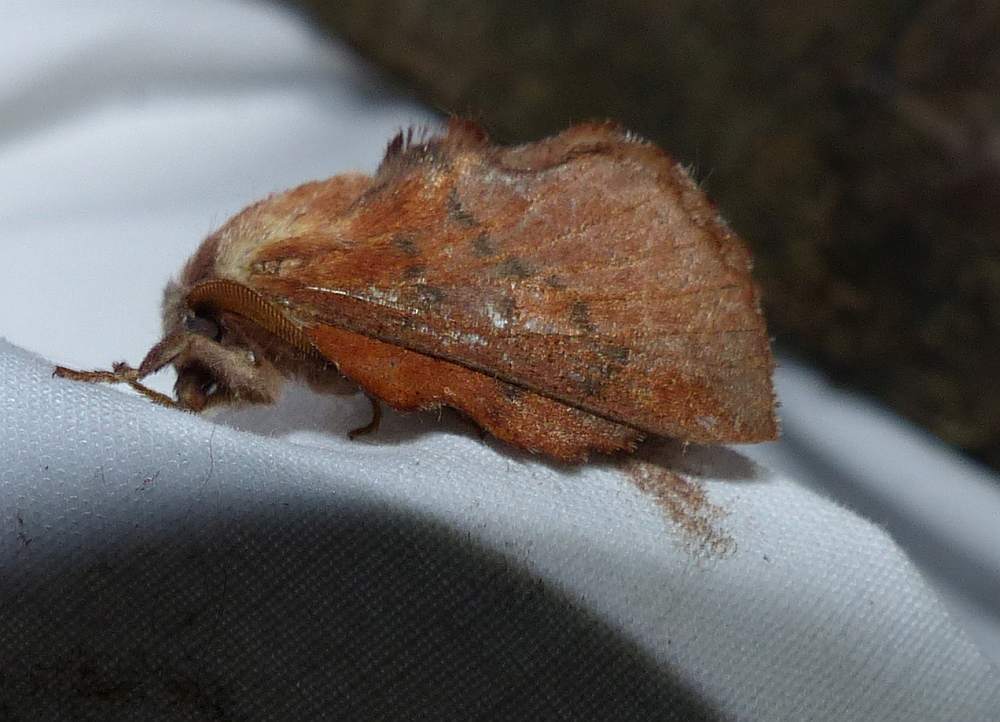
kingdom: Animalia
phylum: Arthropoda
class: Insecta
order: Lepidoptera
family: Lasiocampidae
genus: Phyllodesma
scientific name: Phyllodesma americana
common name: American lappet moth
